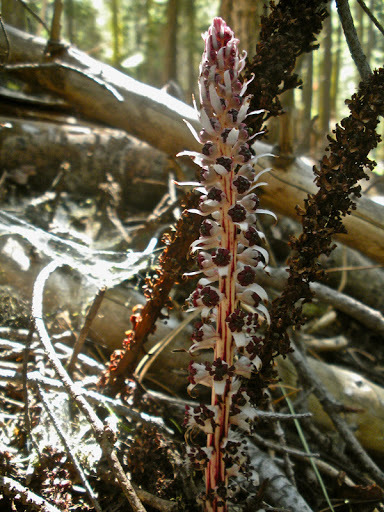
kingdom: Plantae
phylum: Tracheophyta
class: Magnoliopsida
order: Ericales
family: Ericaceae
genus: Allotropa
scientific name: Allotropa virgata
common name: Candy-striped allotropa
